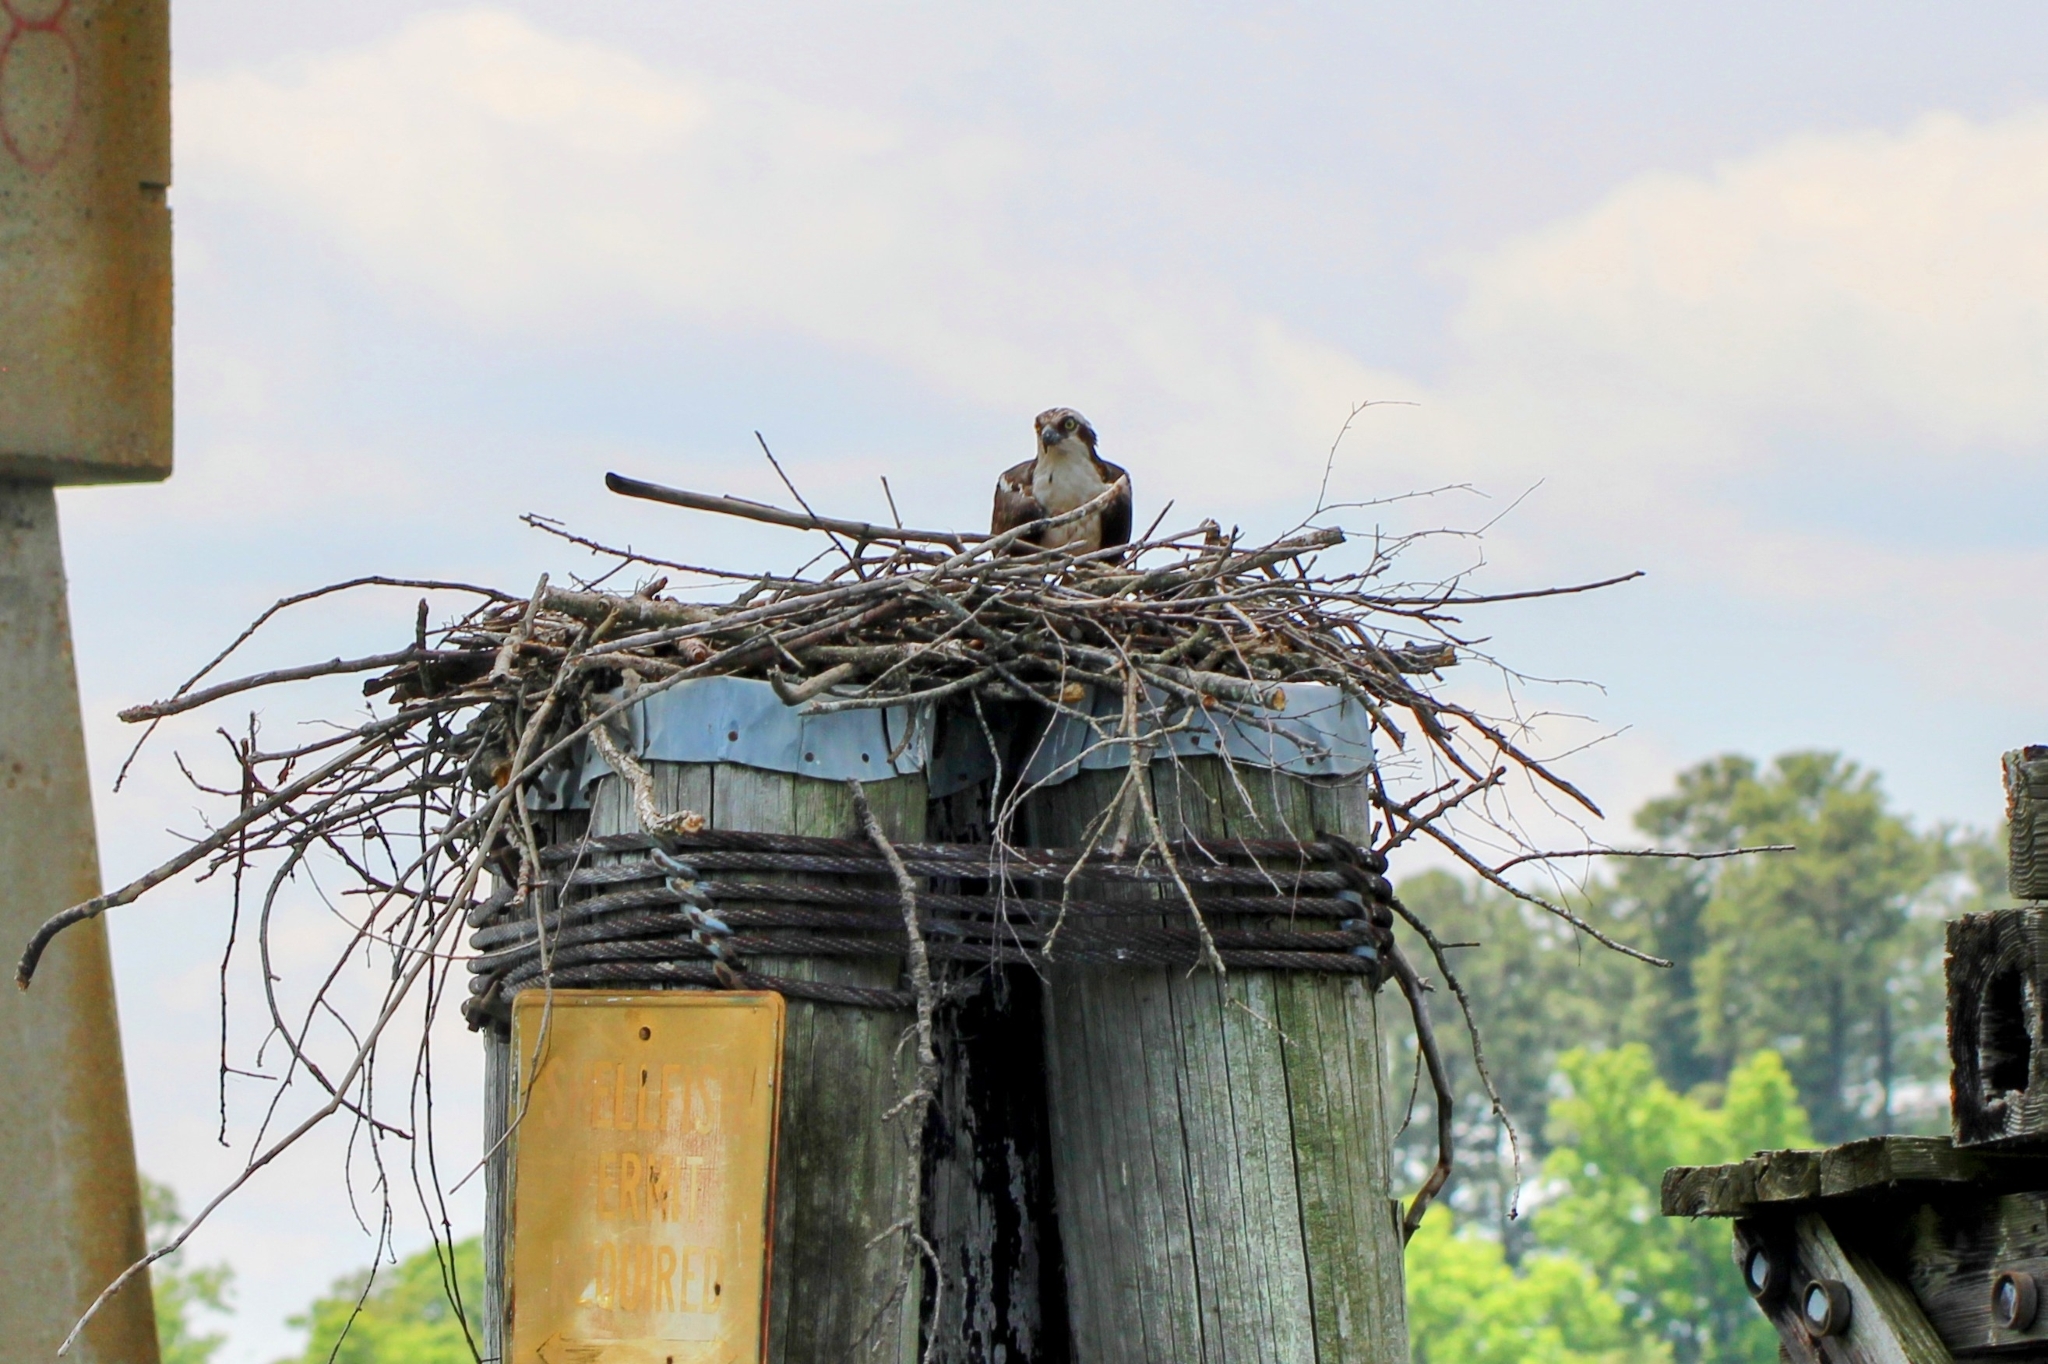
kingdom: Animalia
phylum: Chordata
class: Aves
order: Accipitriformes
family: Pandionidae
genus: Pandion
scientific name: Pandion haliaetus
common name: Osprey
